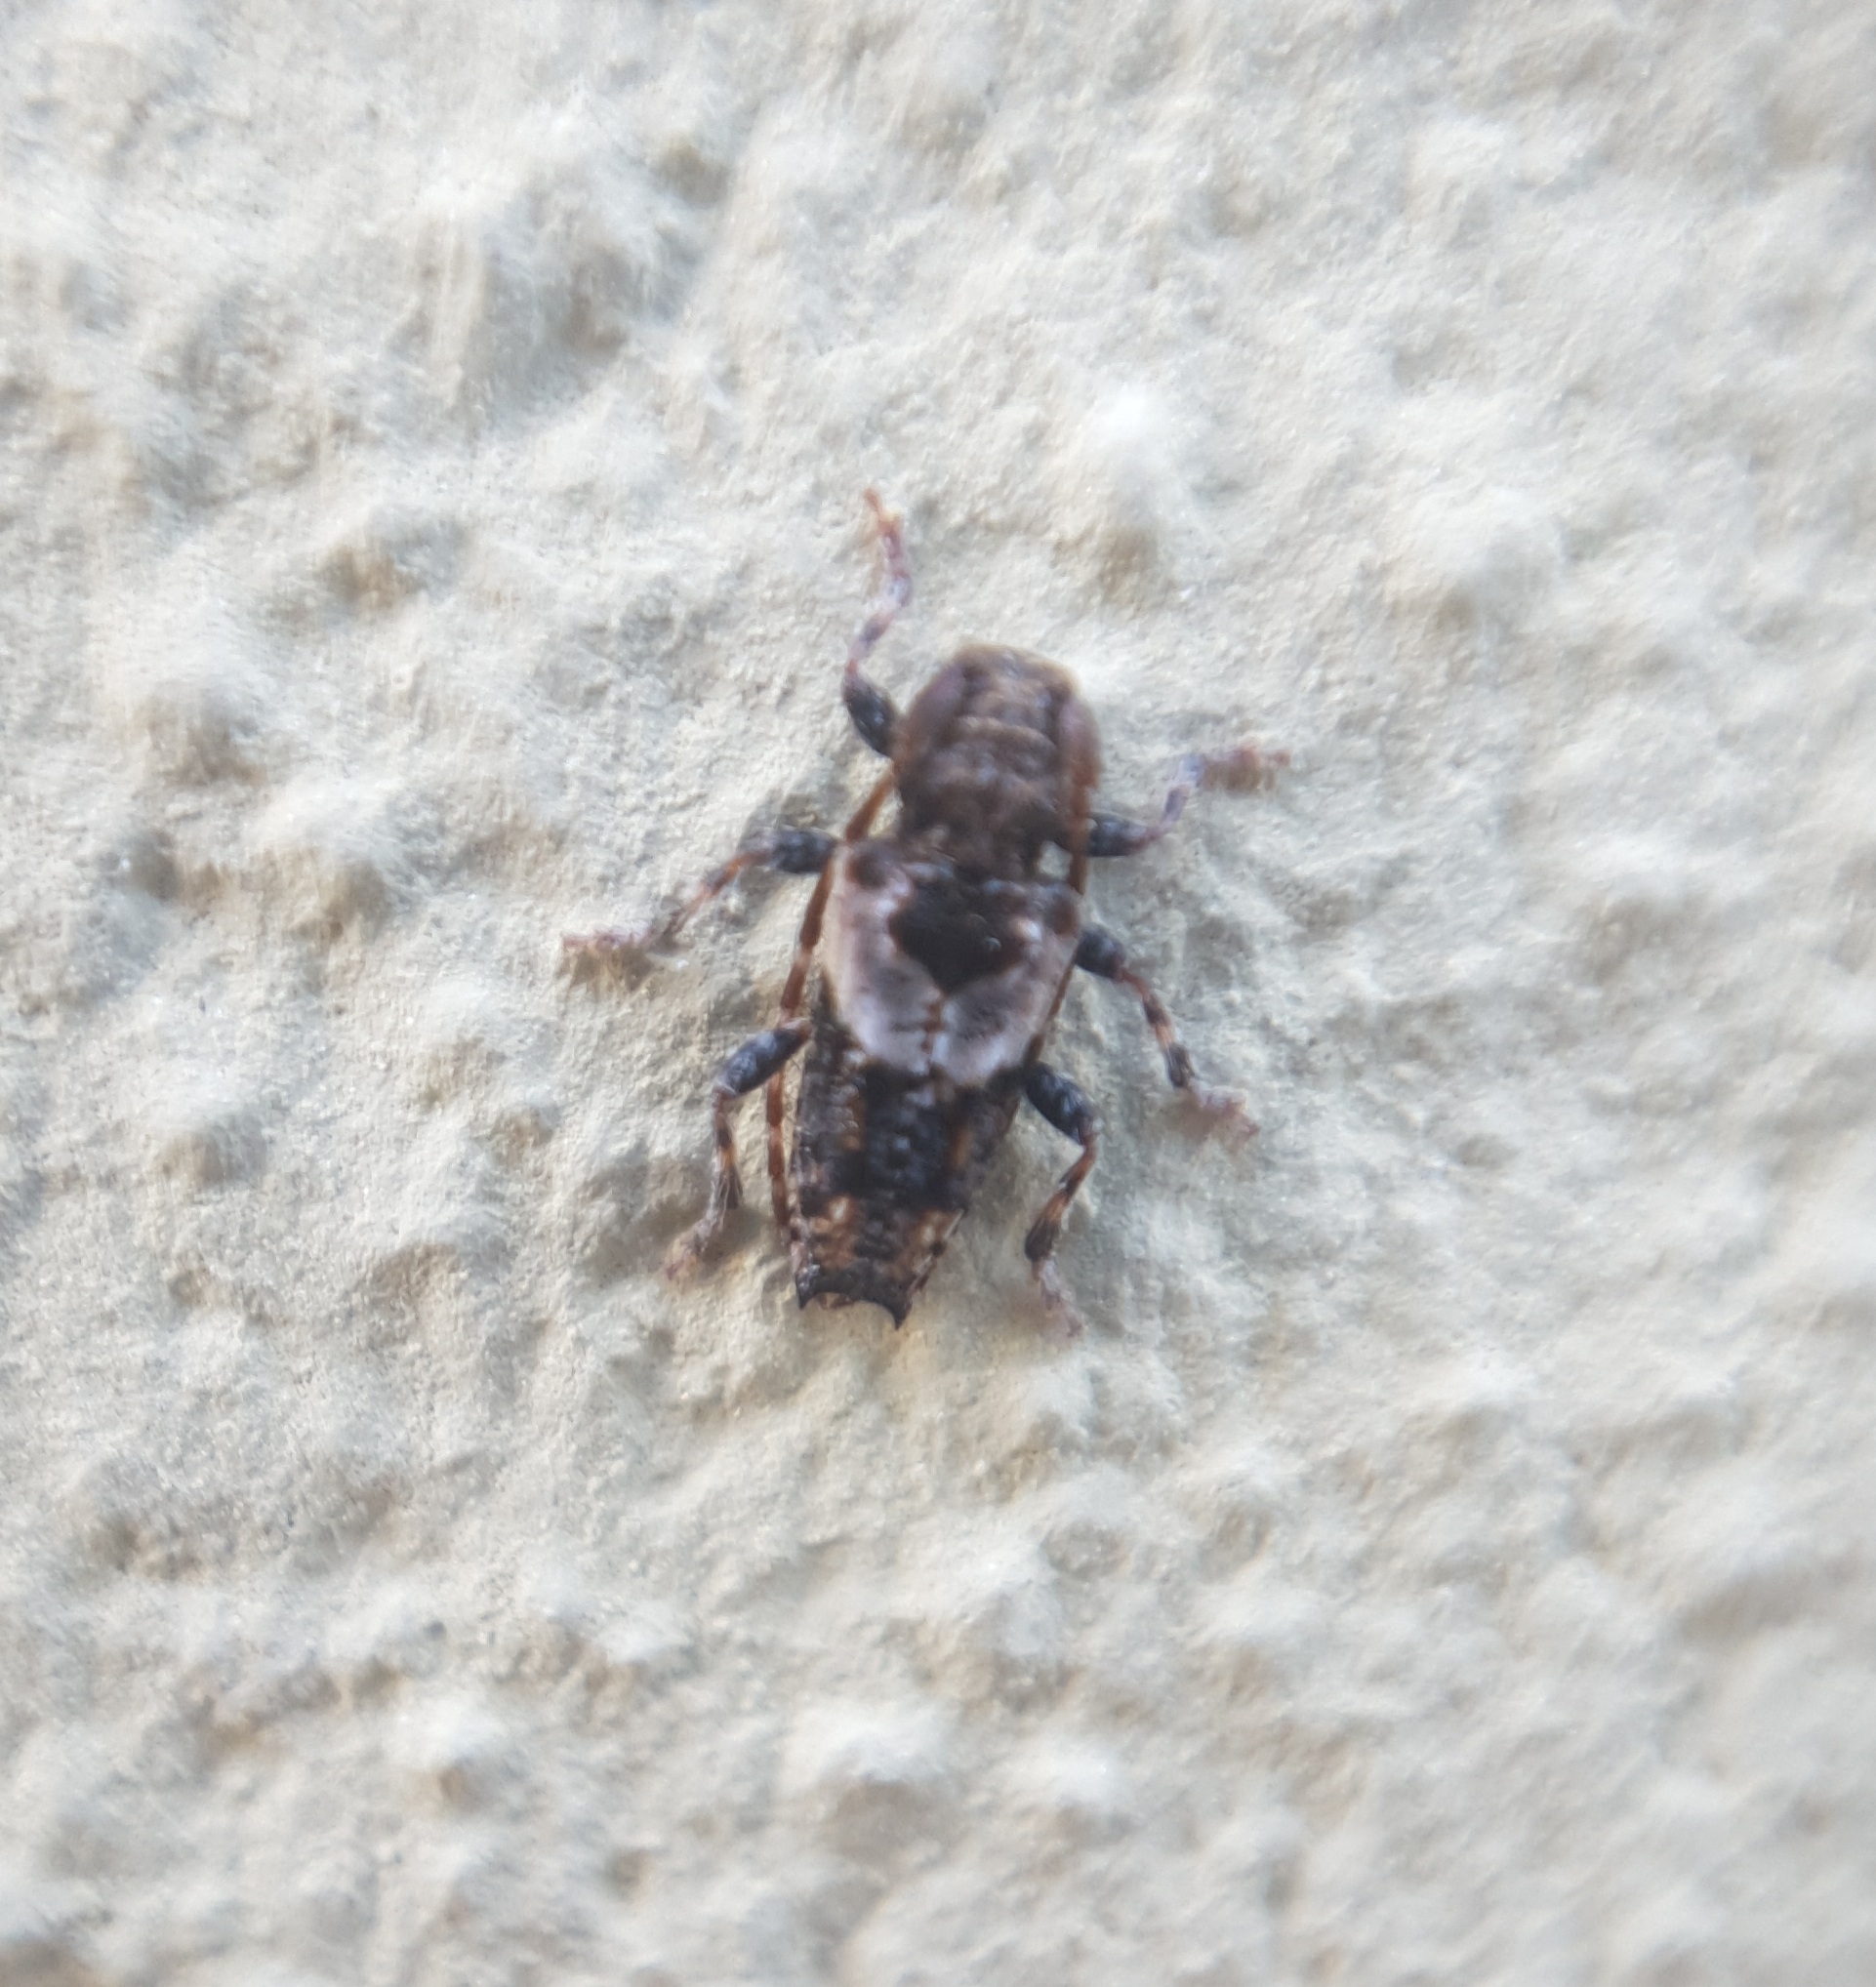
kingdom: Animalia
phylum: Arthropoda
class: Insecta
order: Coleoptera
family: Cerambycidae
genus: Pogonocherus
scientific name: Pogonocherus hispidus
